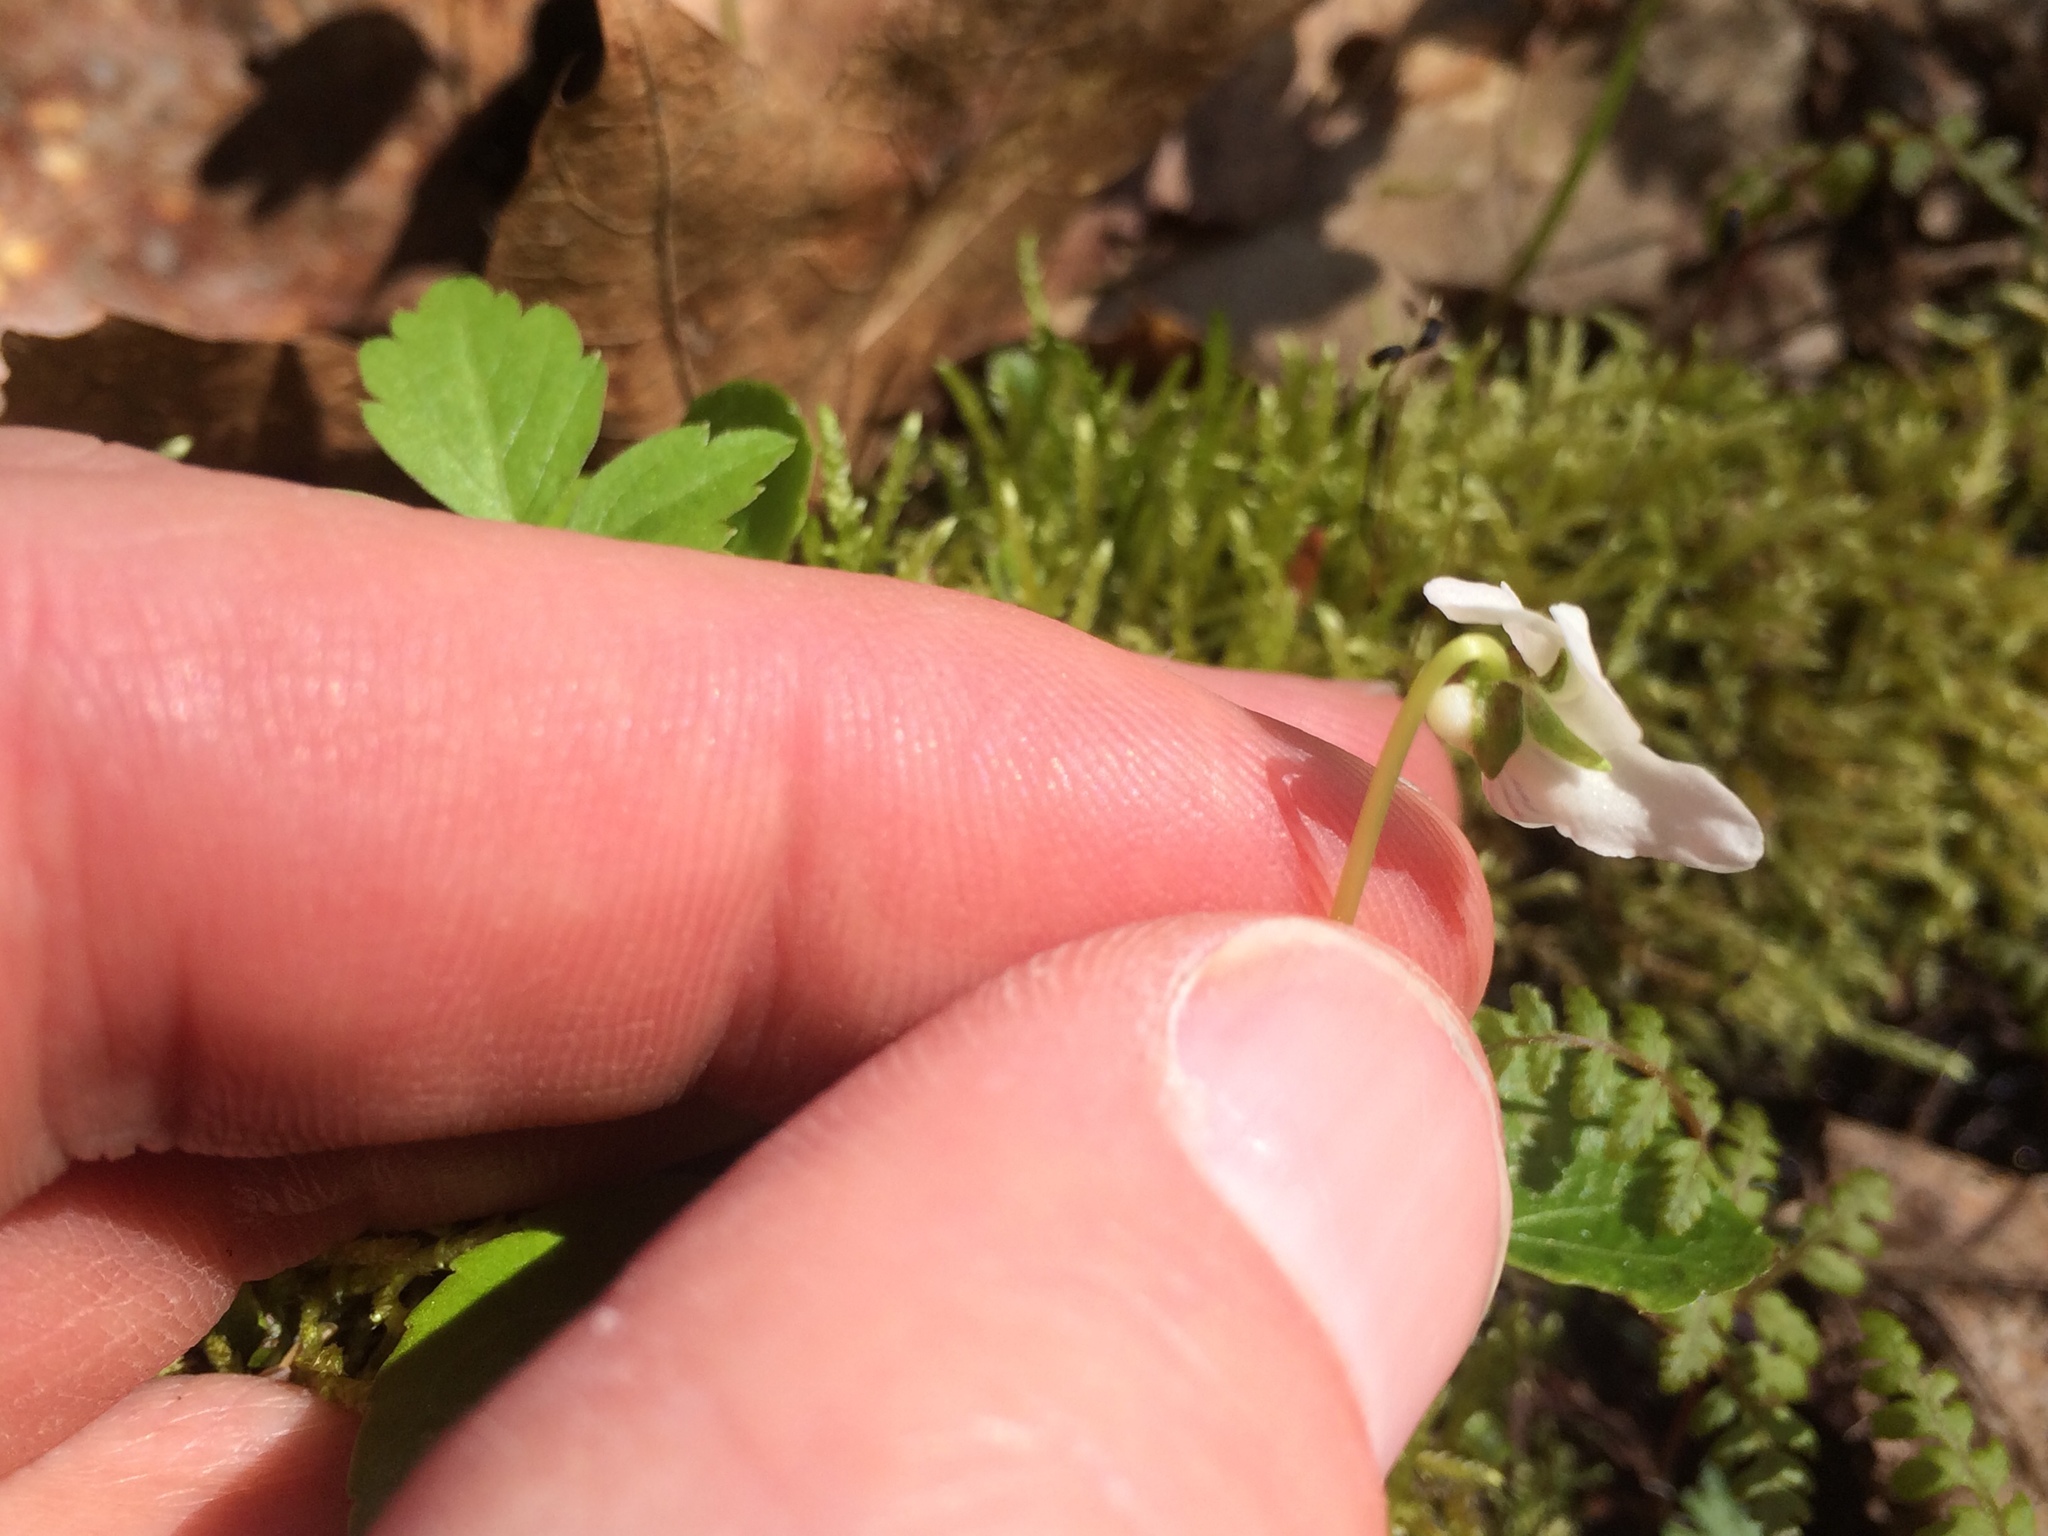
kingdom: Plantae
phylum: Tracheophyta
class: Magnoliopsida
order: Malpighiales
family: Violaceae
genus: Viola
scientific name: Viola renifolia
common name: Kidney-leaf violet
